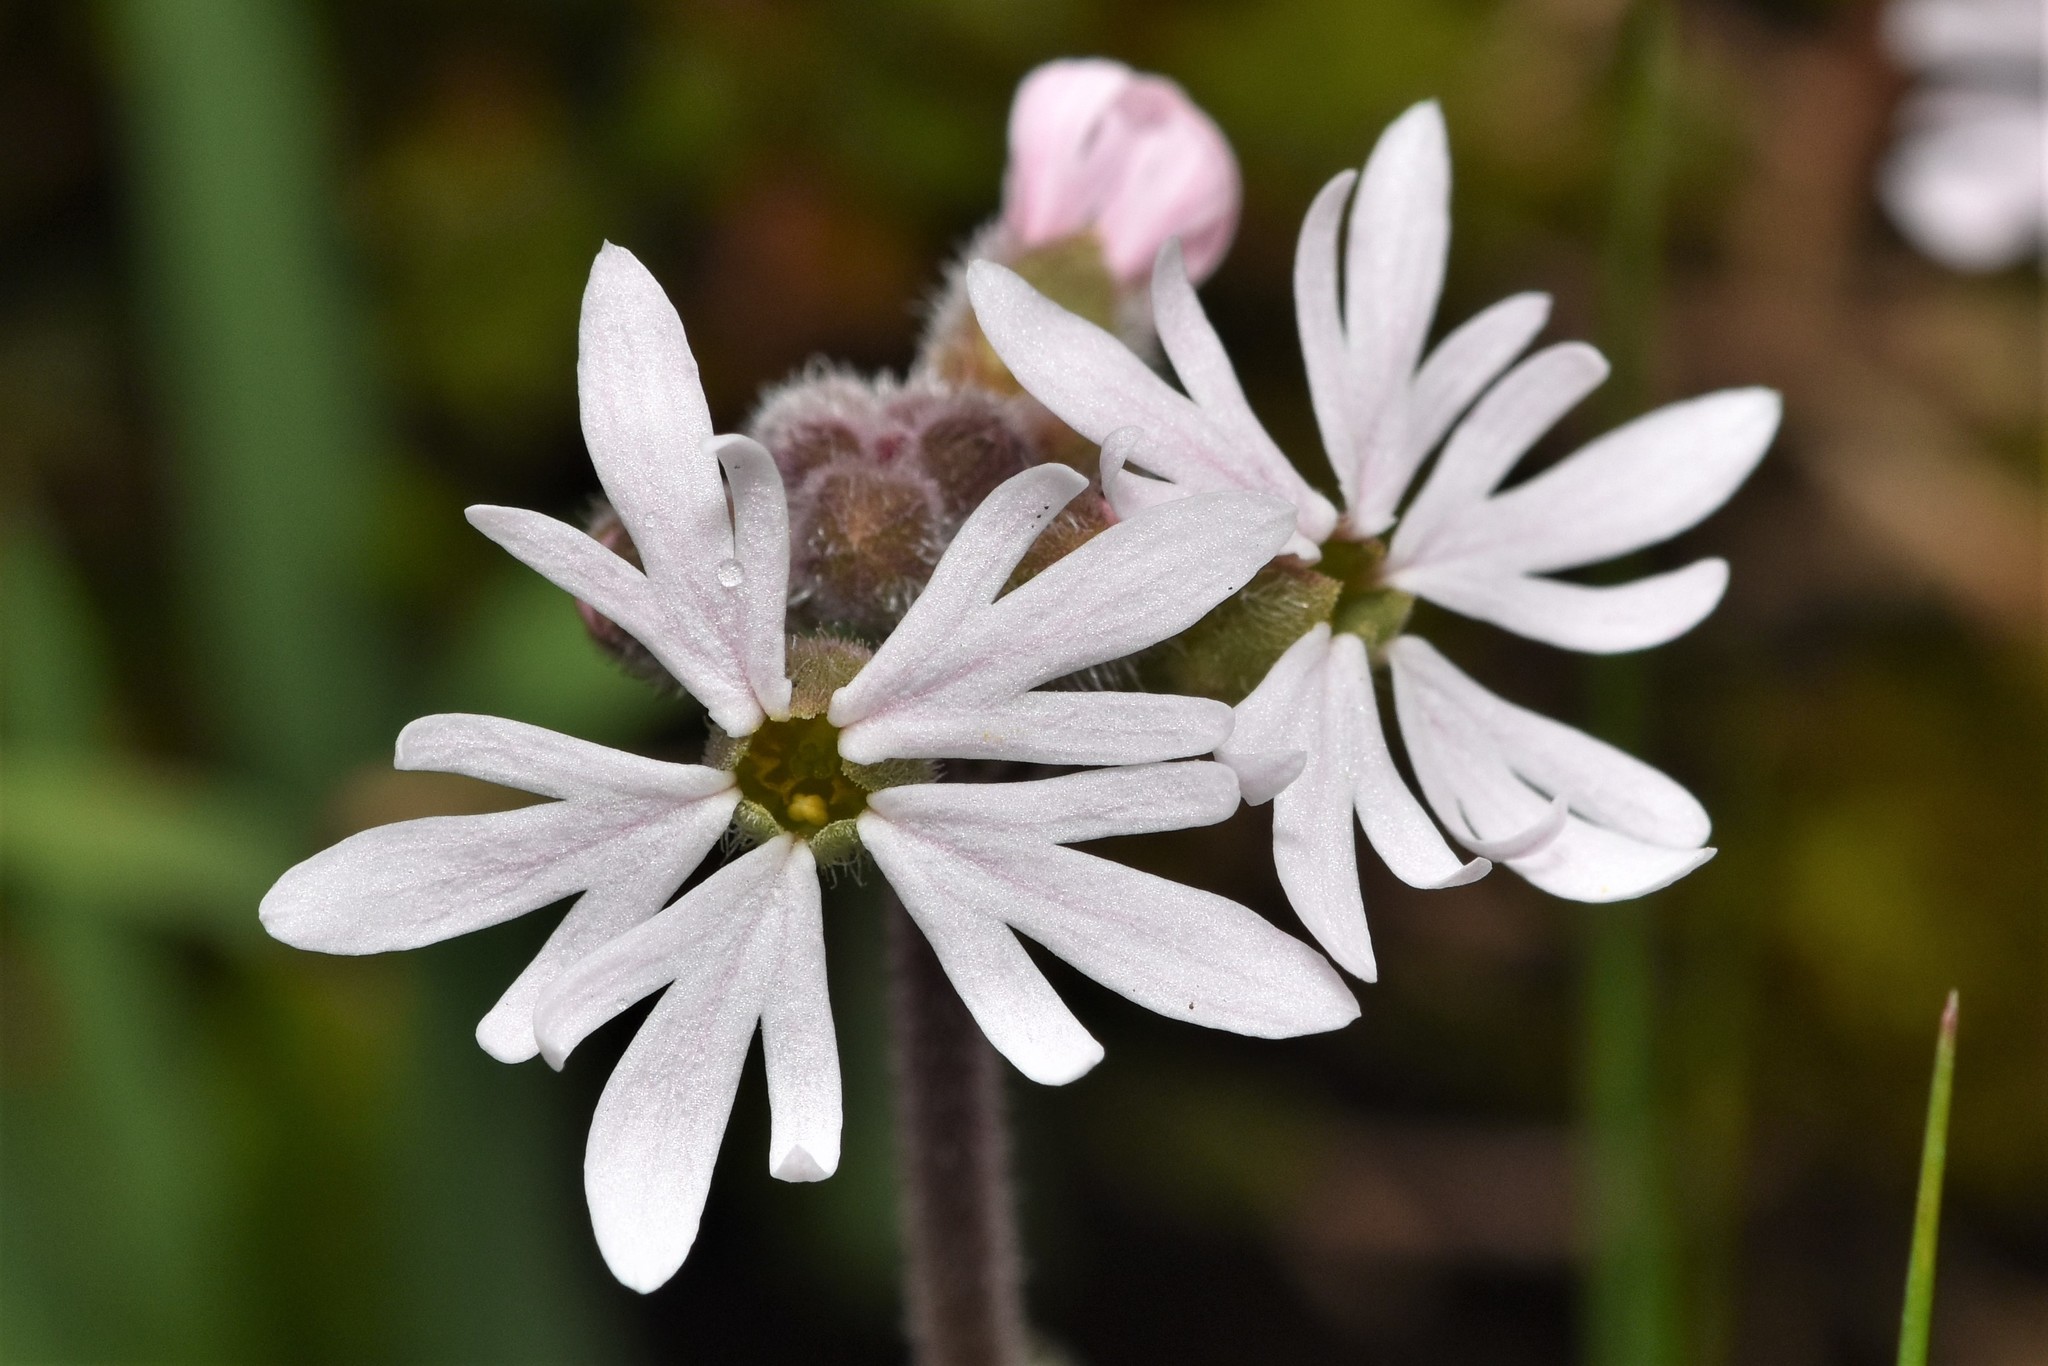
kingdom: Plantae
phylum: Tracheophyta
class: Magnoliopsida
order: Saxifragales
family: Saxifragaceae
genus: Lithophragma
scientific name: Lithophragma parviflorum
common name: Small-flowered fringe-cup
